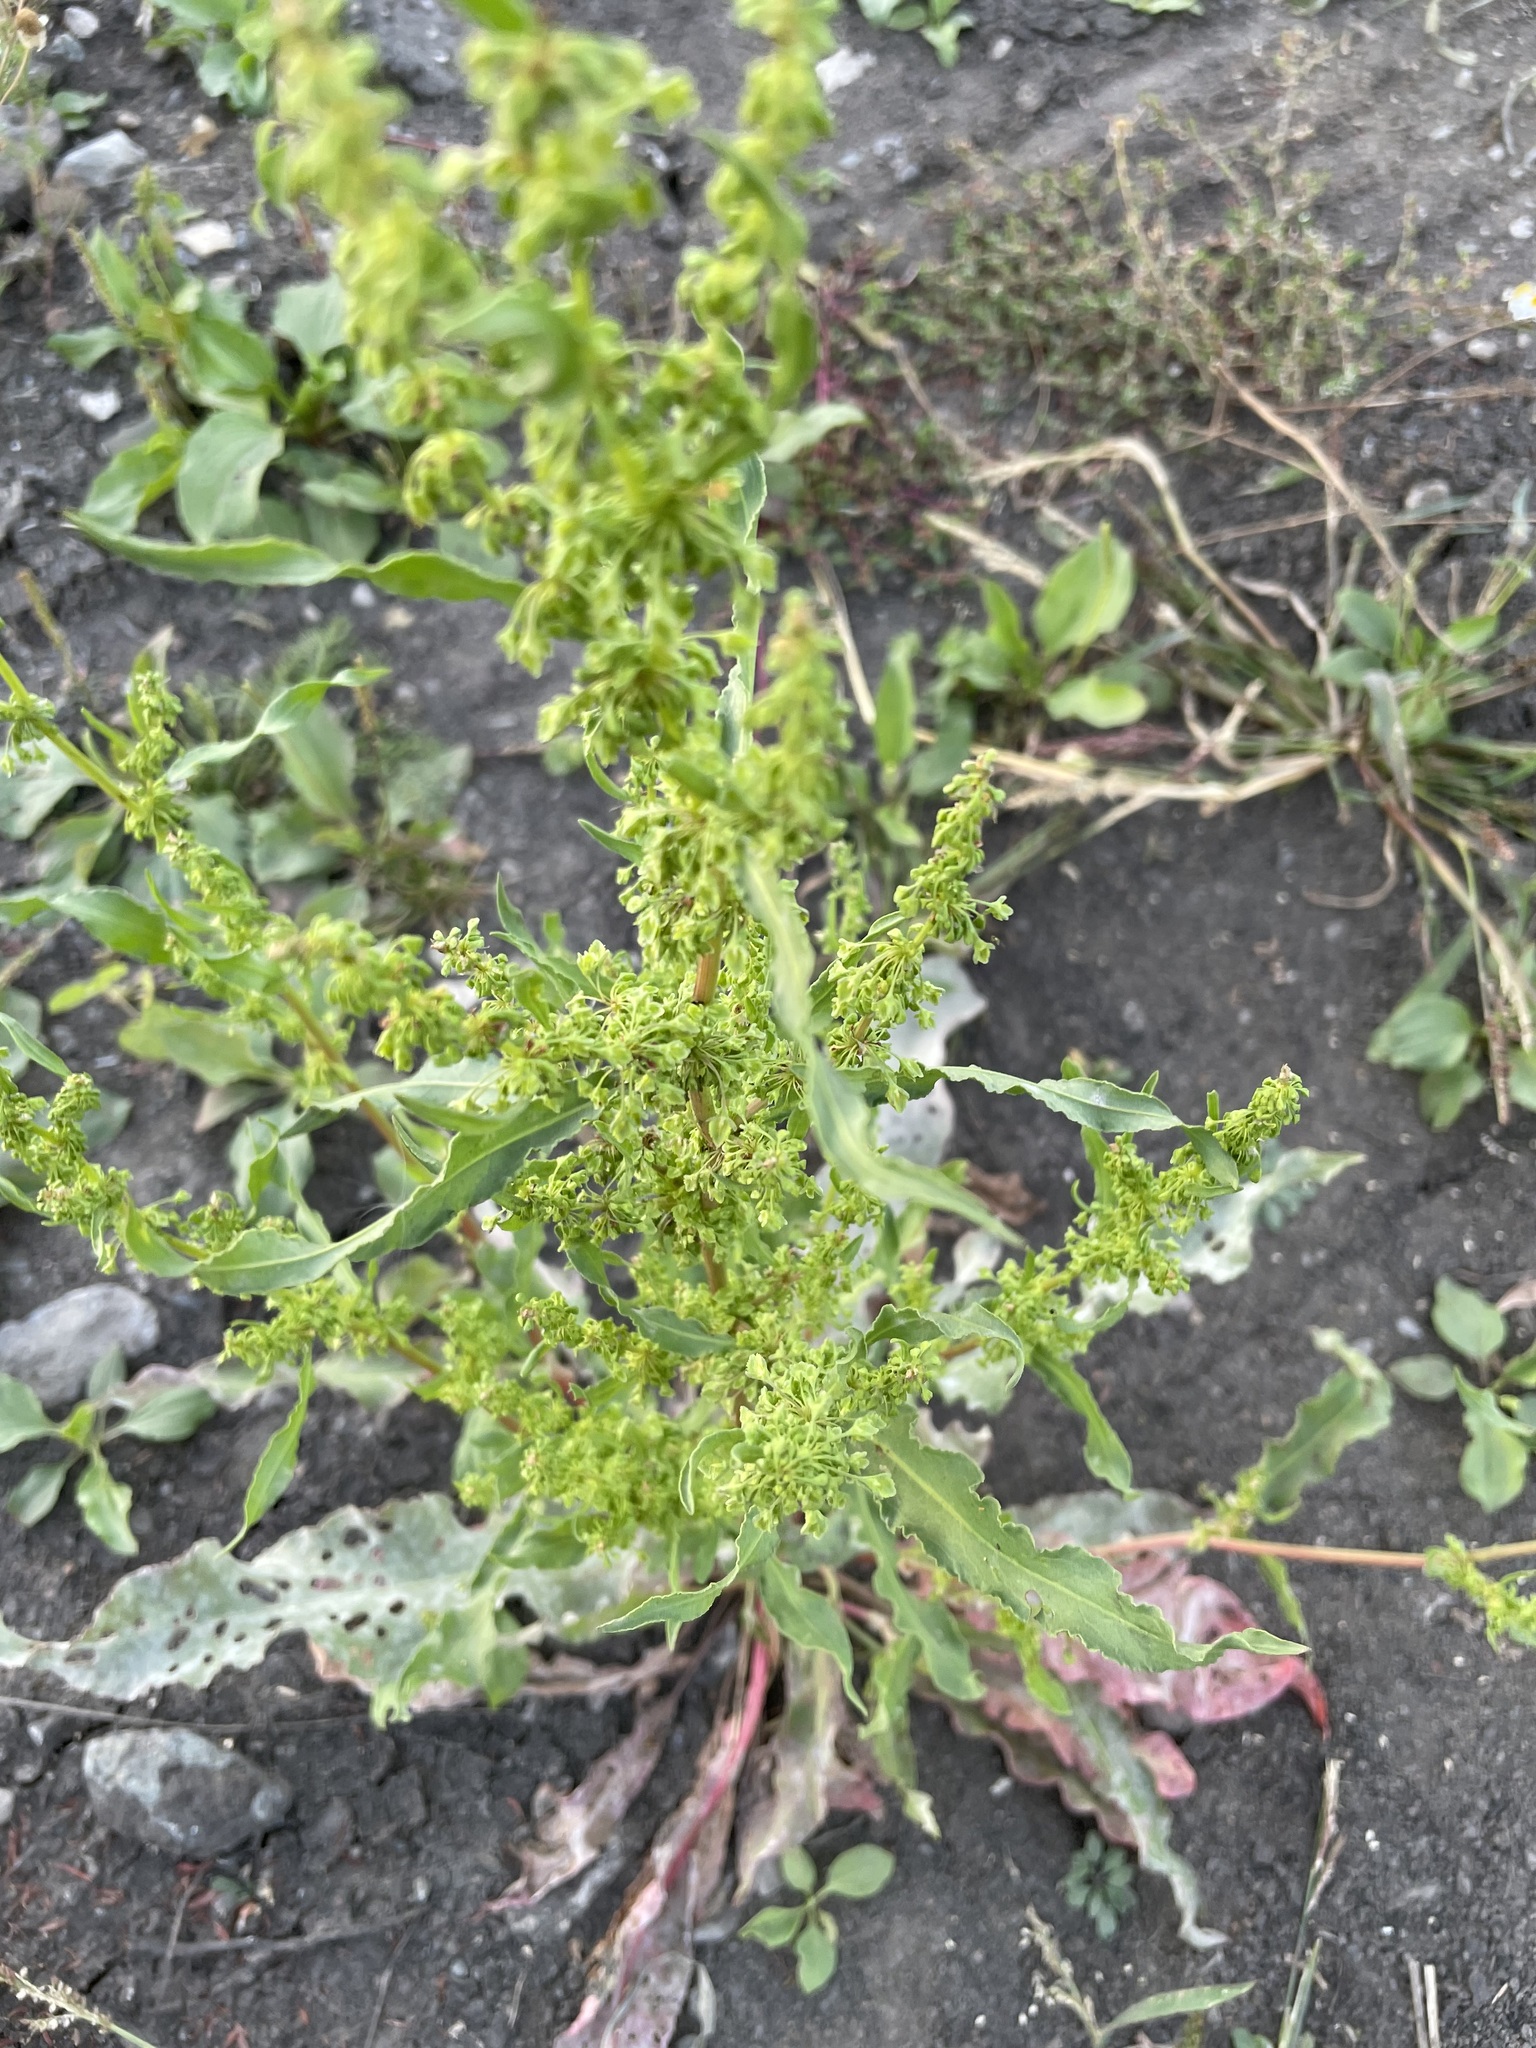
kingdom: Plantae
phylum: Tracheophyta
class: Magnoliopsida
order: Caryophyllales
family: Polygonaceae
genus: Rumex
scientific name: Rumex stenophyllus
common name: Narrowleaf dock
